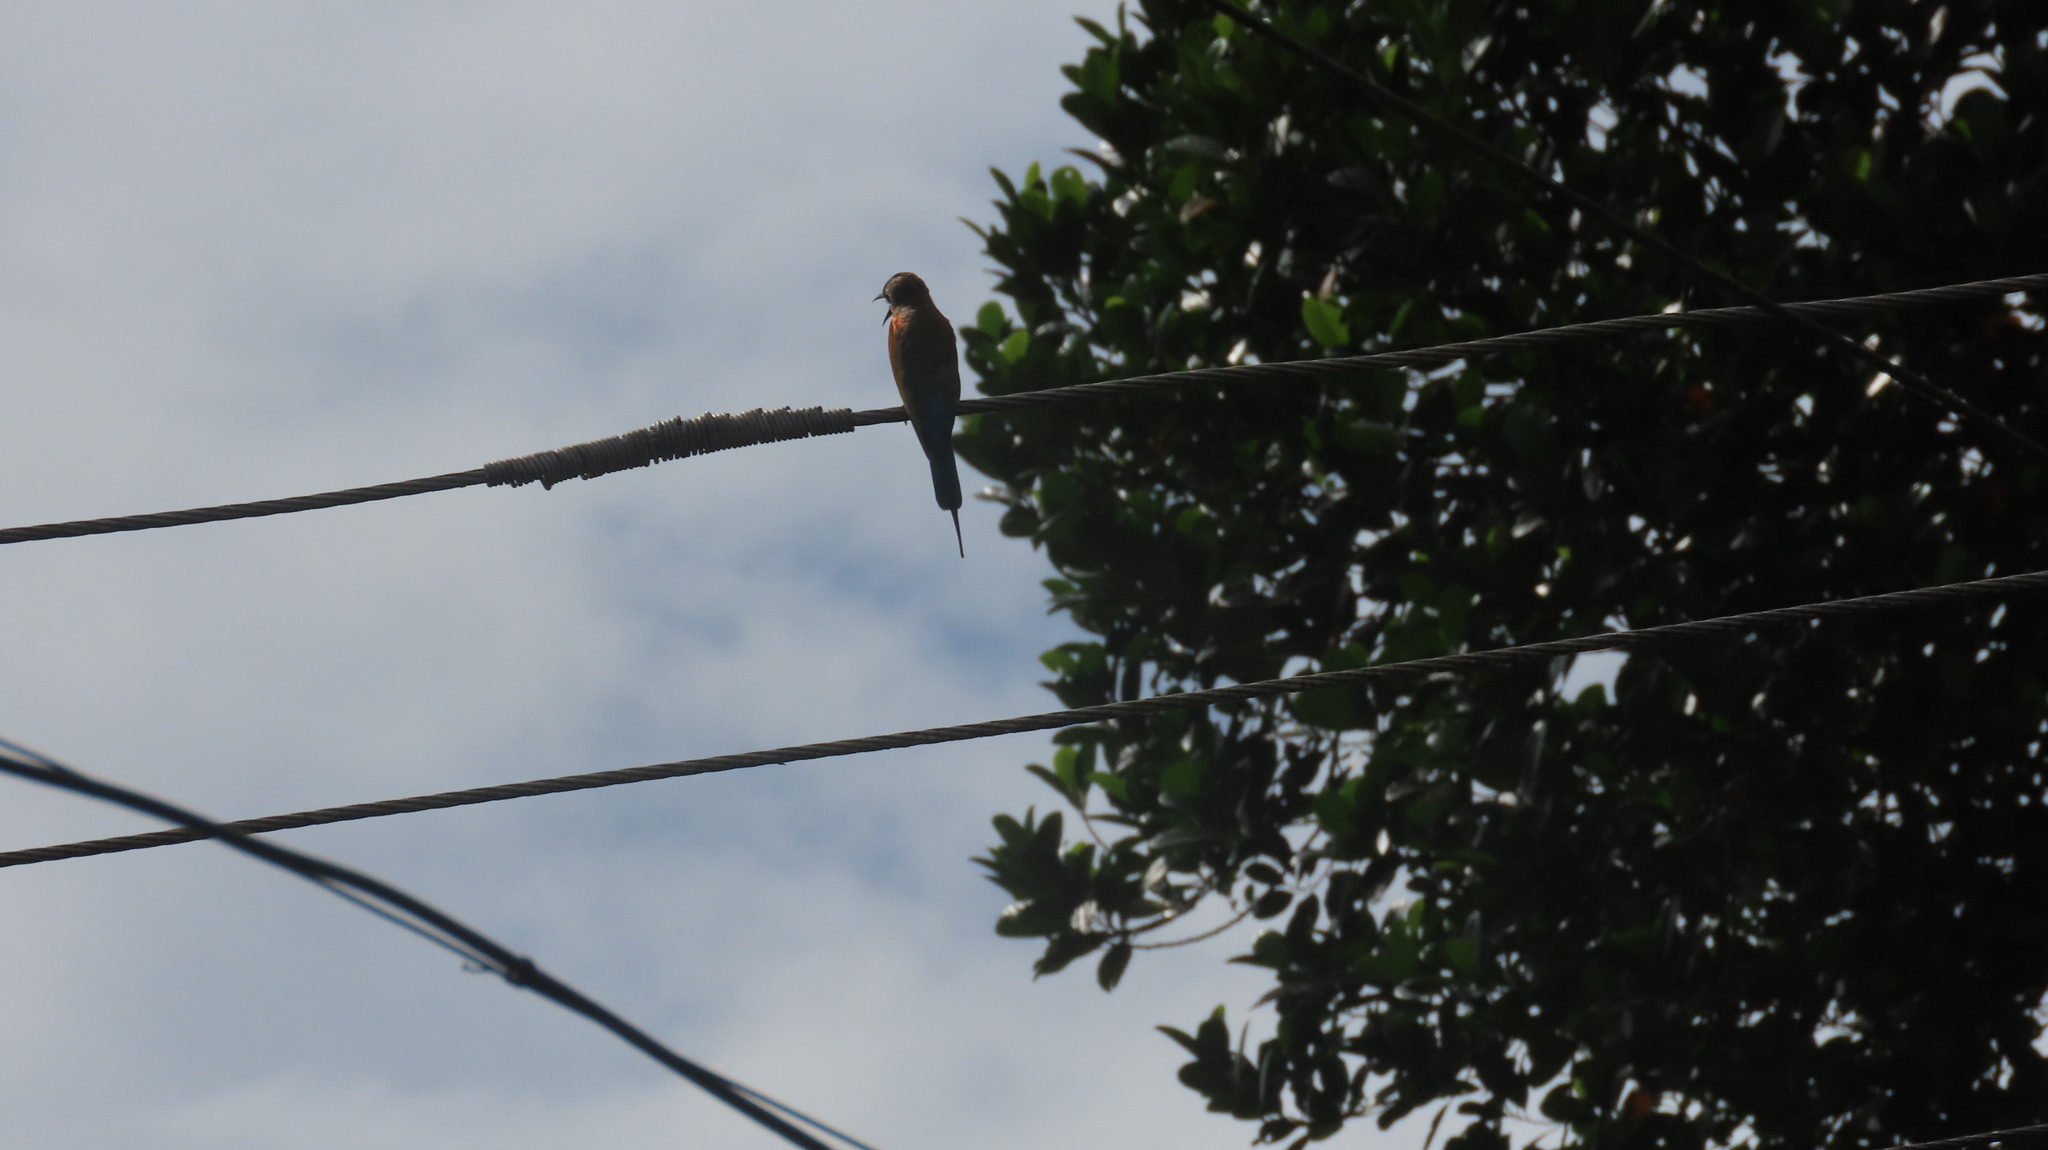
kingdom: Animalia
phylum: Chordata
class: Aves
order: Coraciiformes
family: Meropidae
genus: Merops
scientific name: Merops philippinus
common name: Blue-tailed bee-eater
